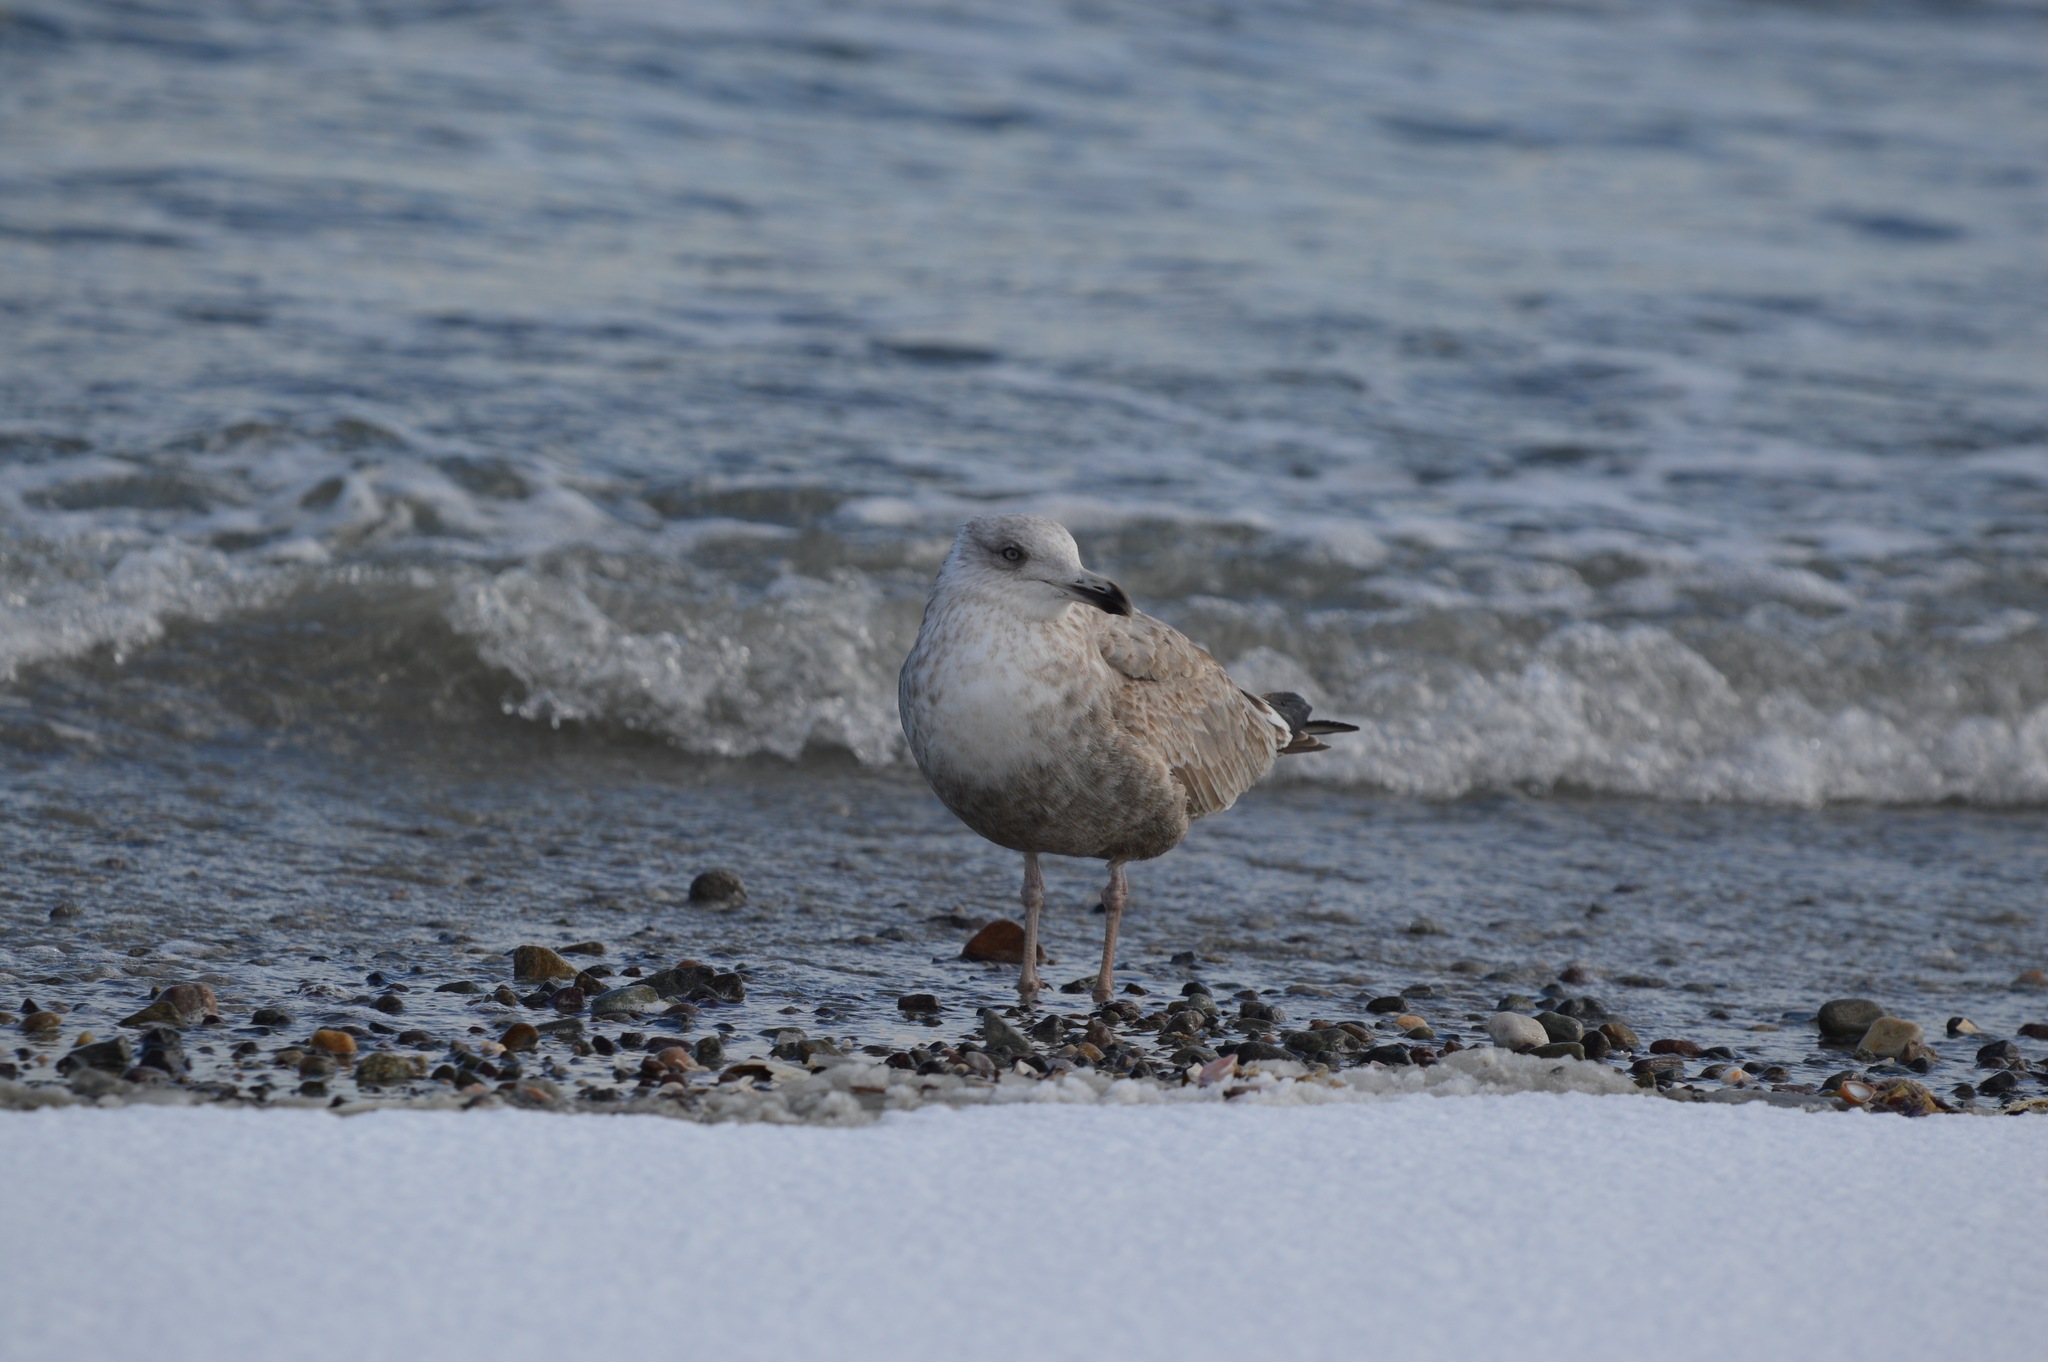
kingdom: Animalia
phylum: Chordata
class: Aves
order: Charadriiformes
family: Laridae
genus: Larus
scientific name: Larus argentatus
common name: Herring gull
